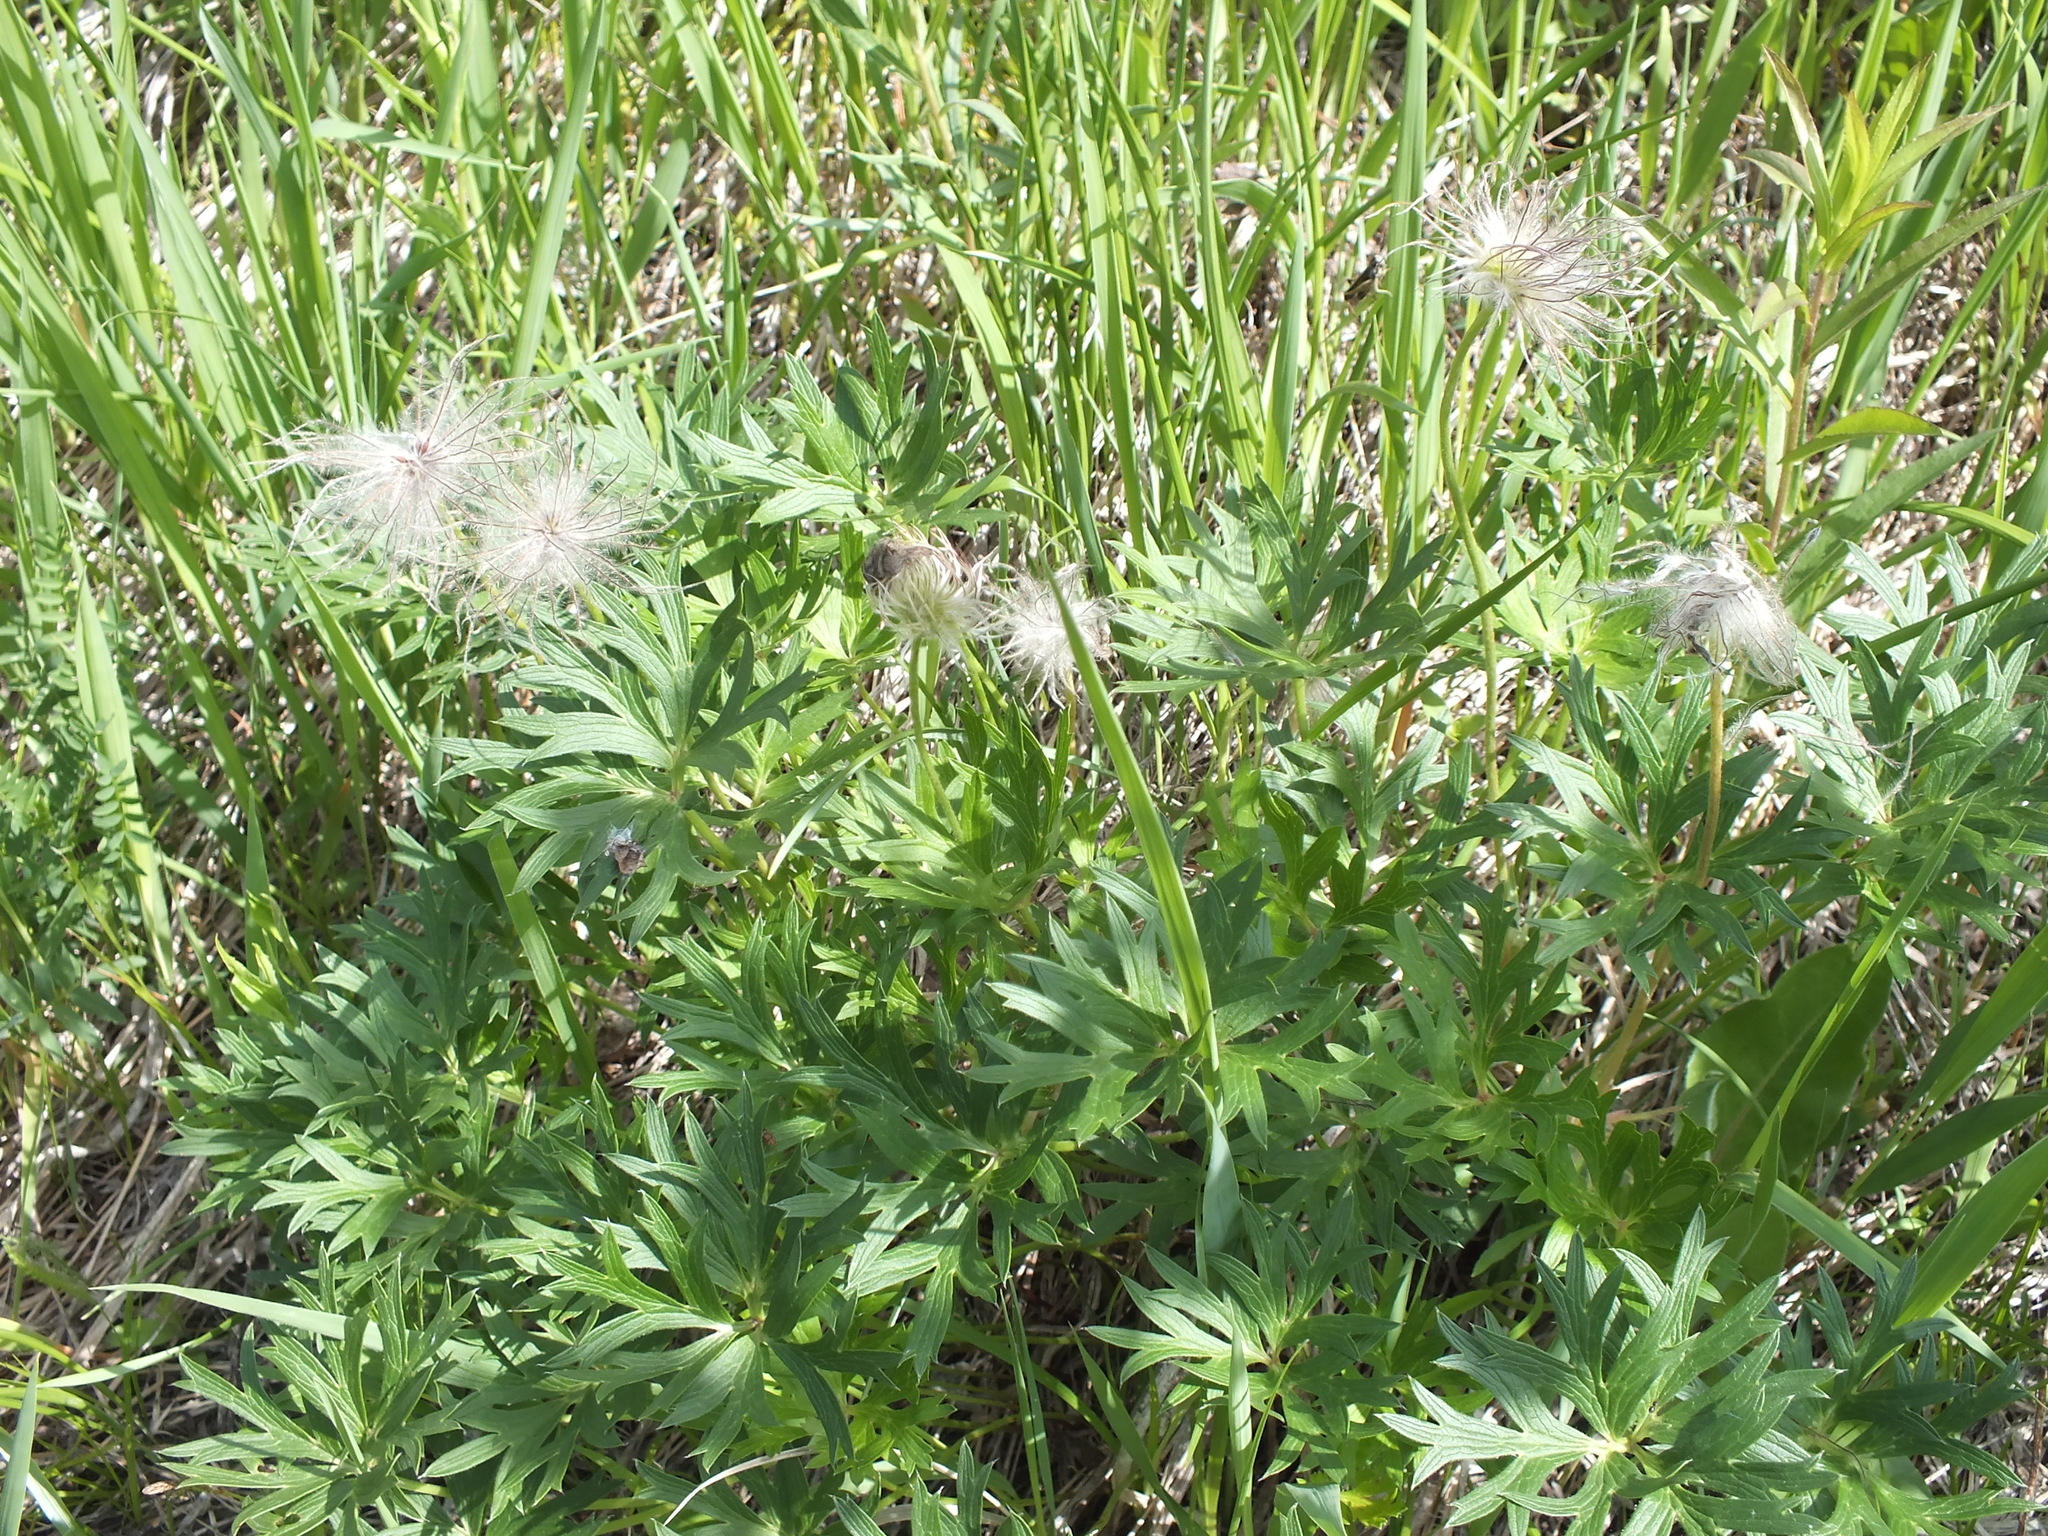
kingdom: Plantae
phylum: Tracheophyta
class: Magnoliopsida
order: Ranunculales
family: Ranunculaceae
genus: Pulsatilla
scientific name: Pulsatilla patens
